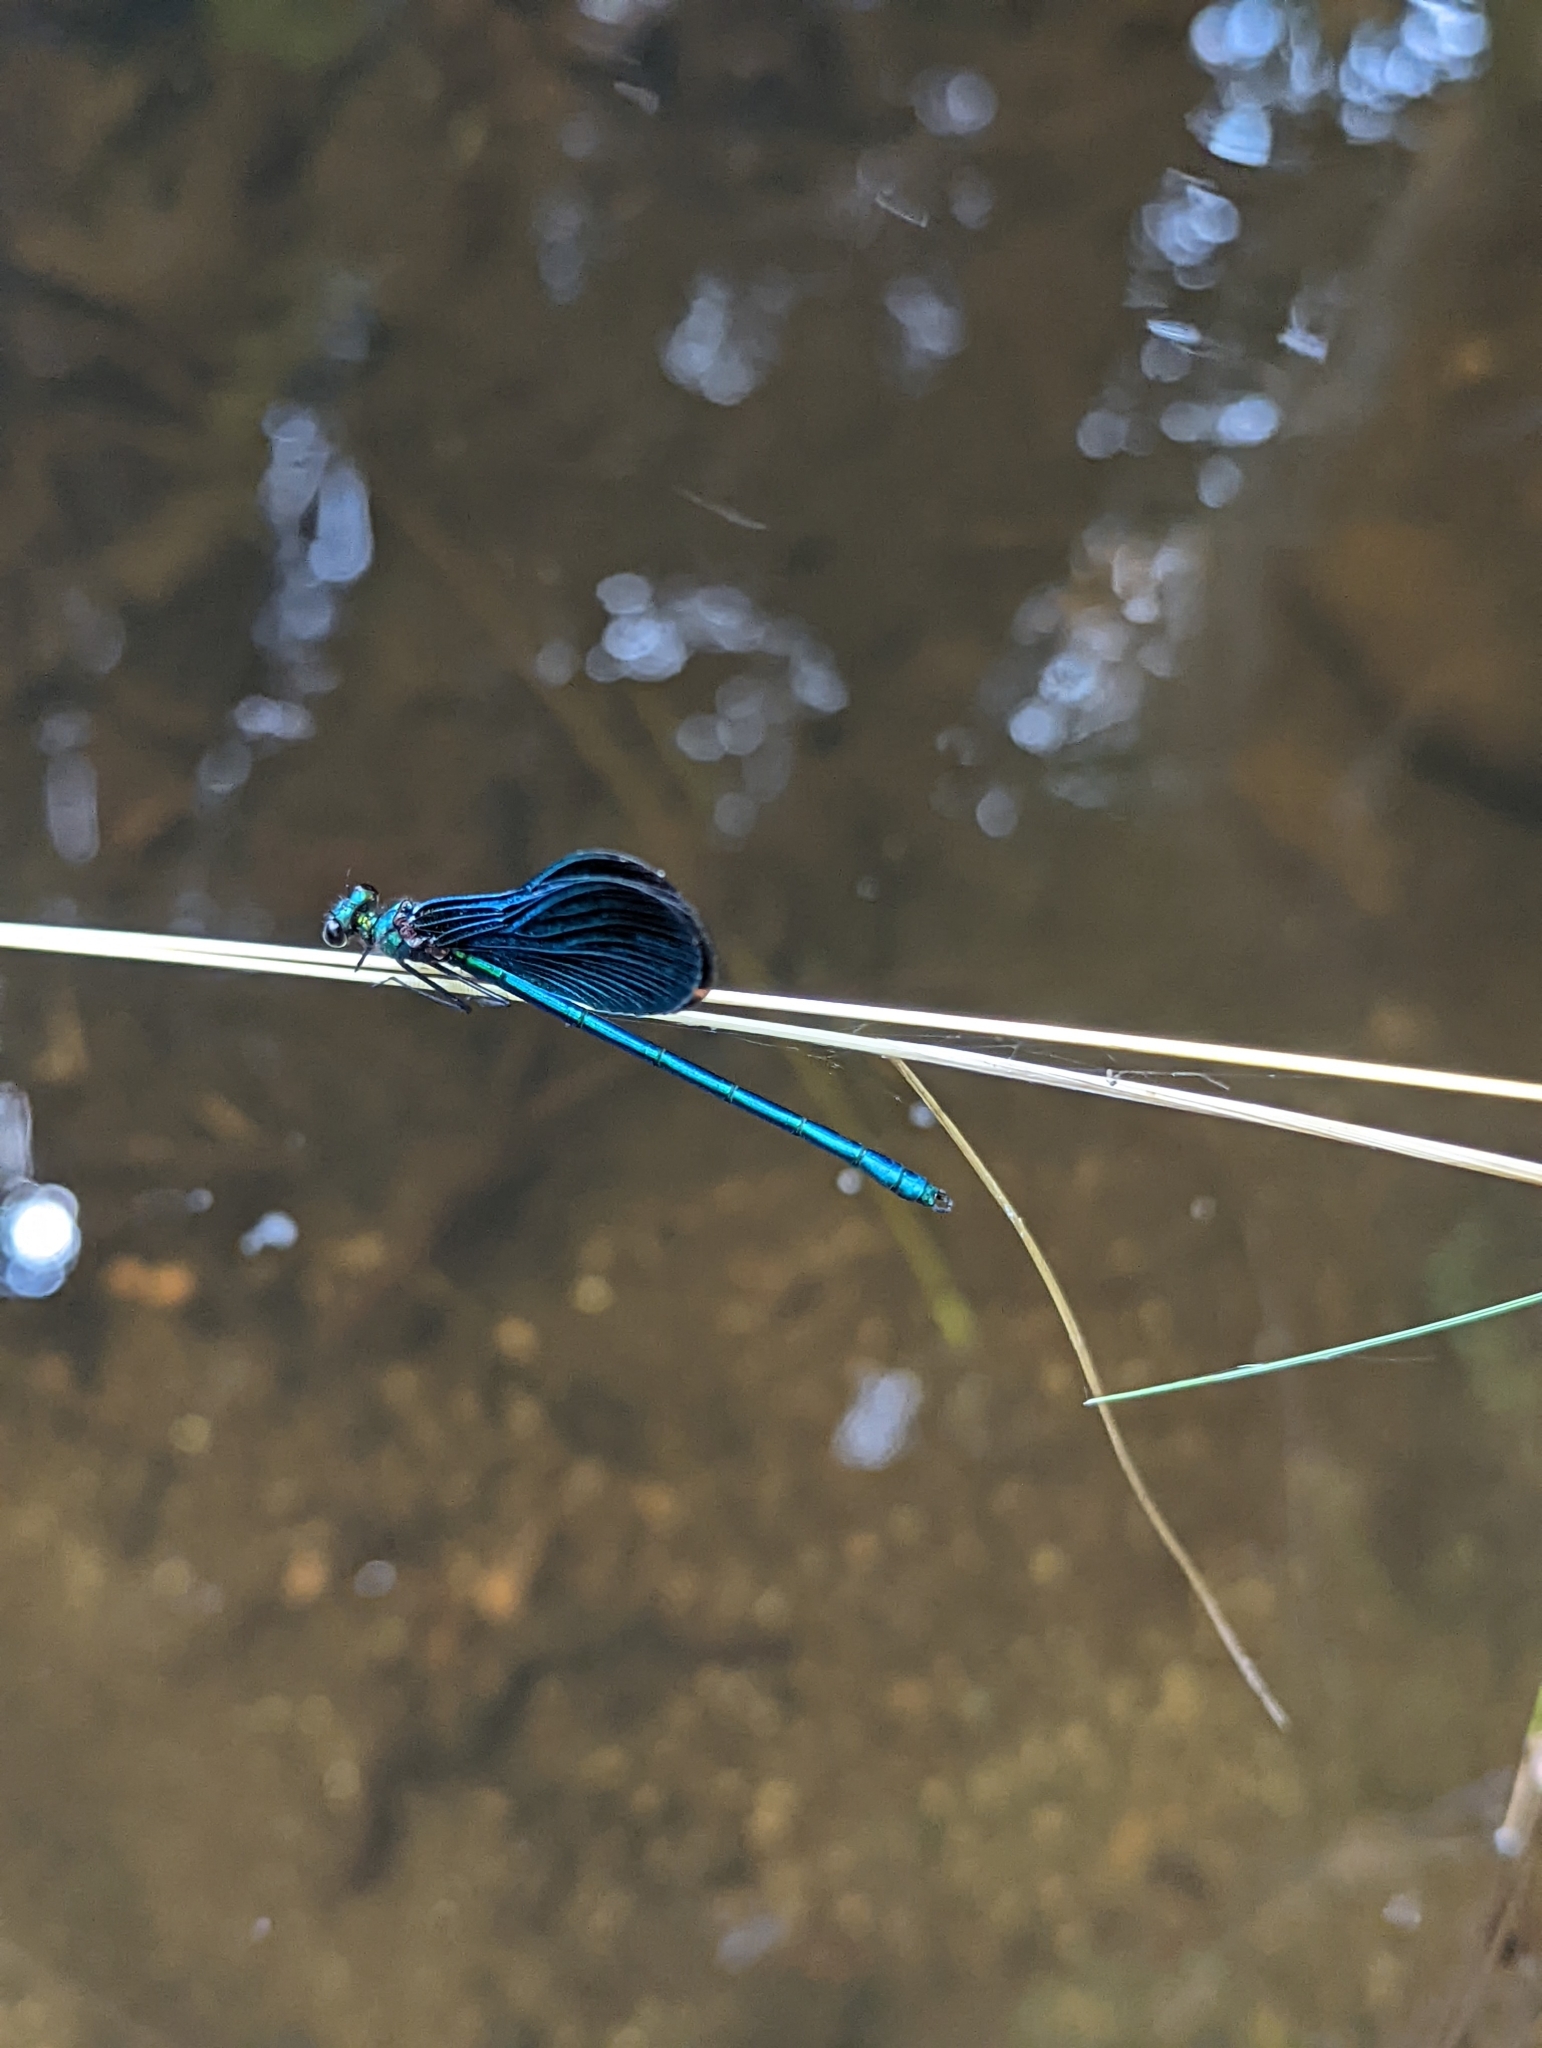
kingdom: Animalia
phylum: Arthropoda
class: Insecta
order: Odonata
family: Calopterygidae
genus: Calopteryx
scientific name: Calopteryx virgo
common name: Beautiful demoiselle
